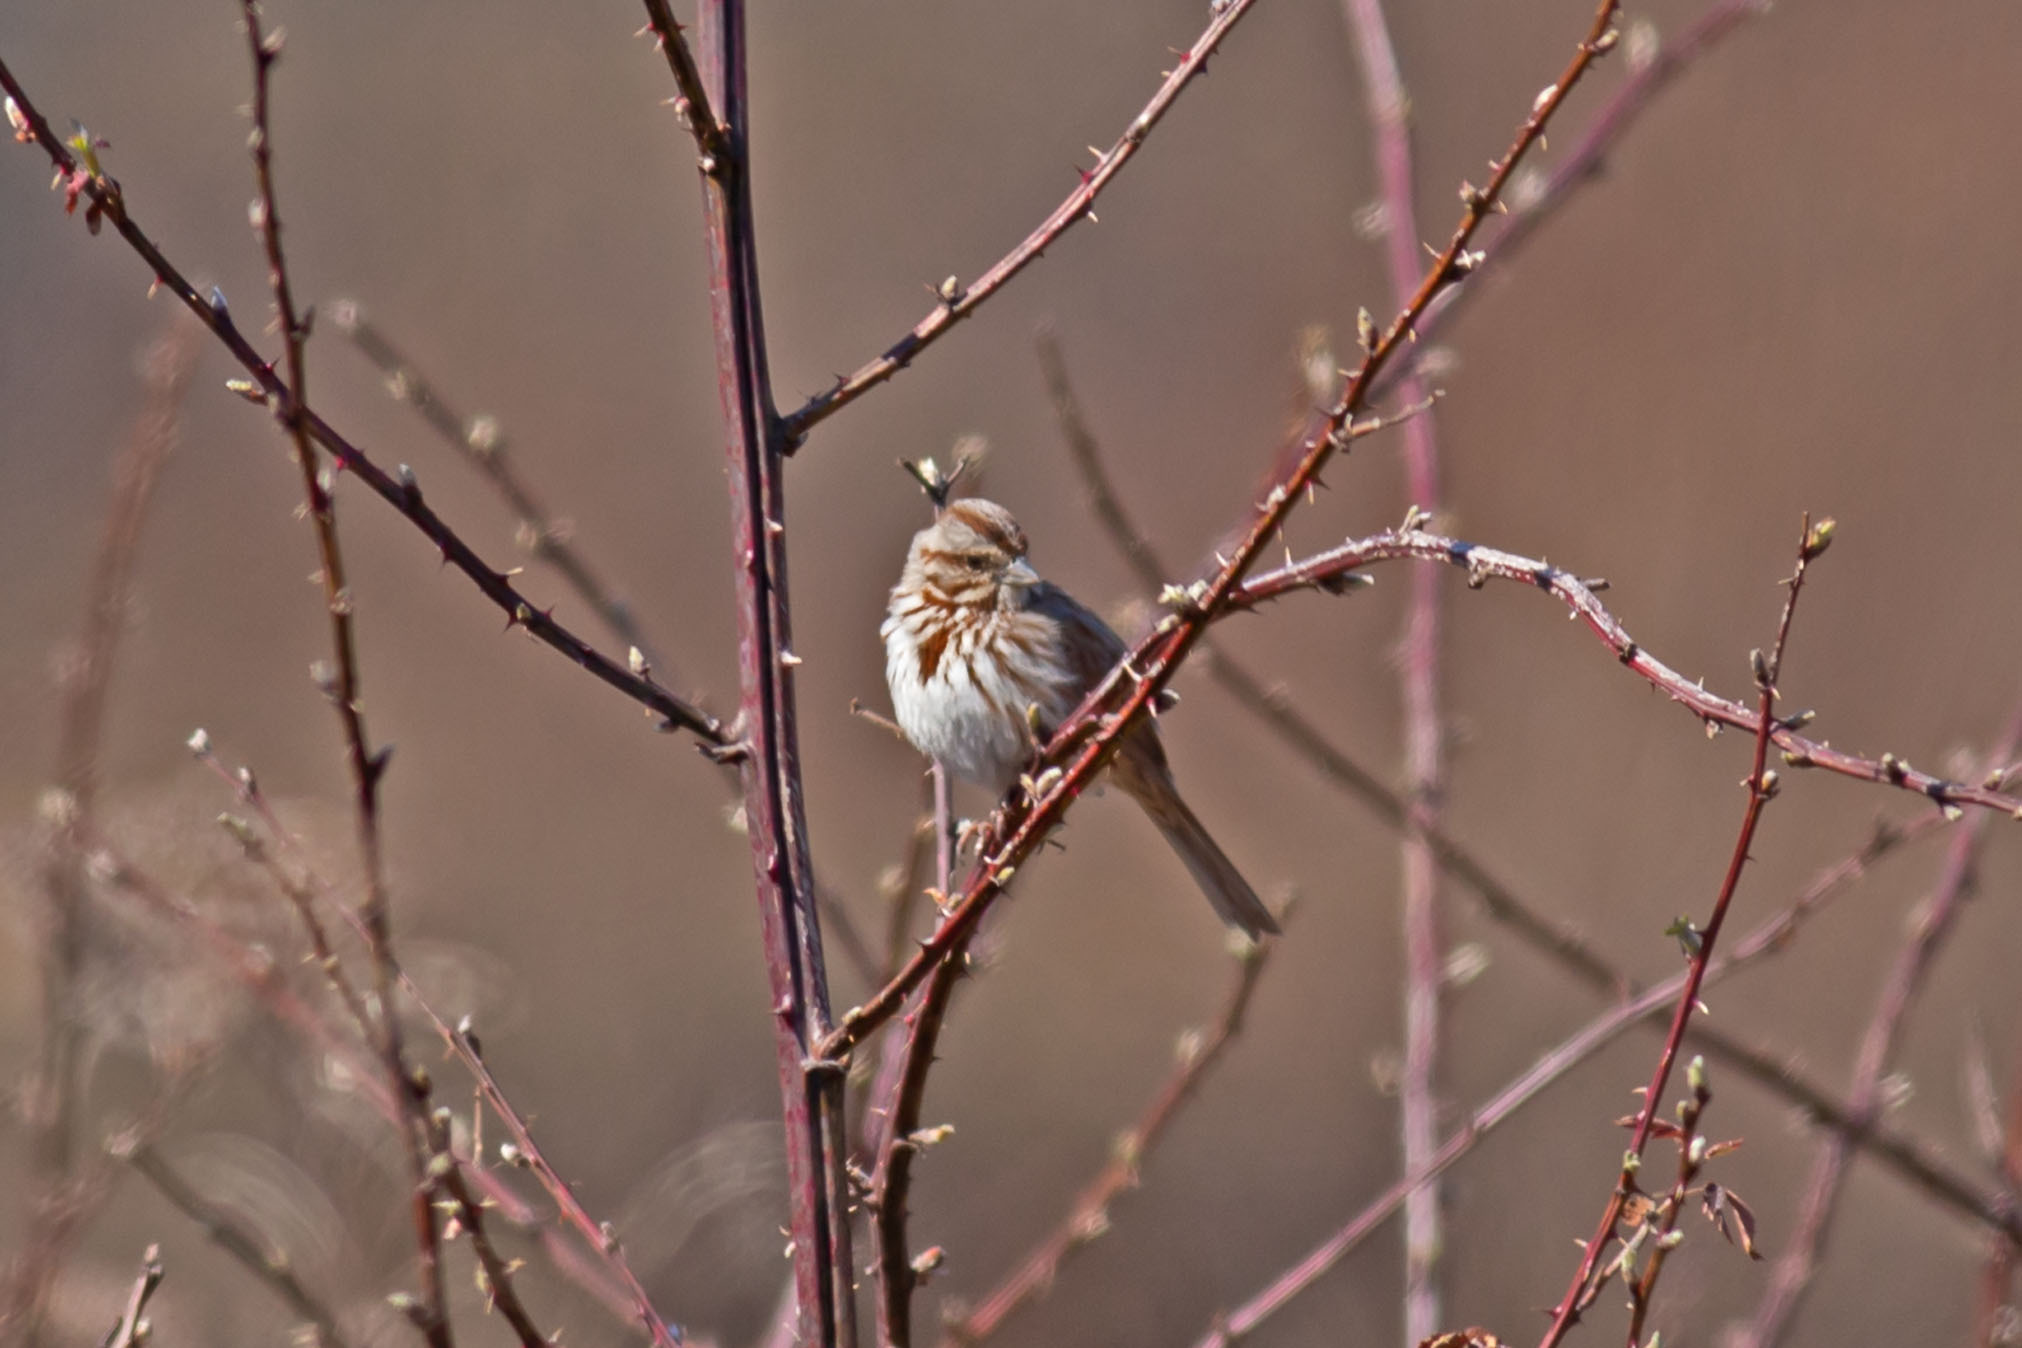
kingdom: Animalia
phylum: Chordata
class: Aves
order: Passeriformes
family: Passerellidae
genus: Melospiza
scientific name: Melospiza melodia
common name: Song sparrow
